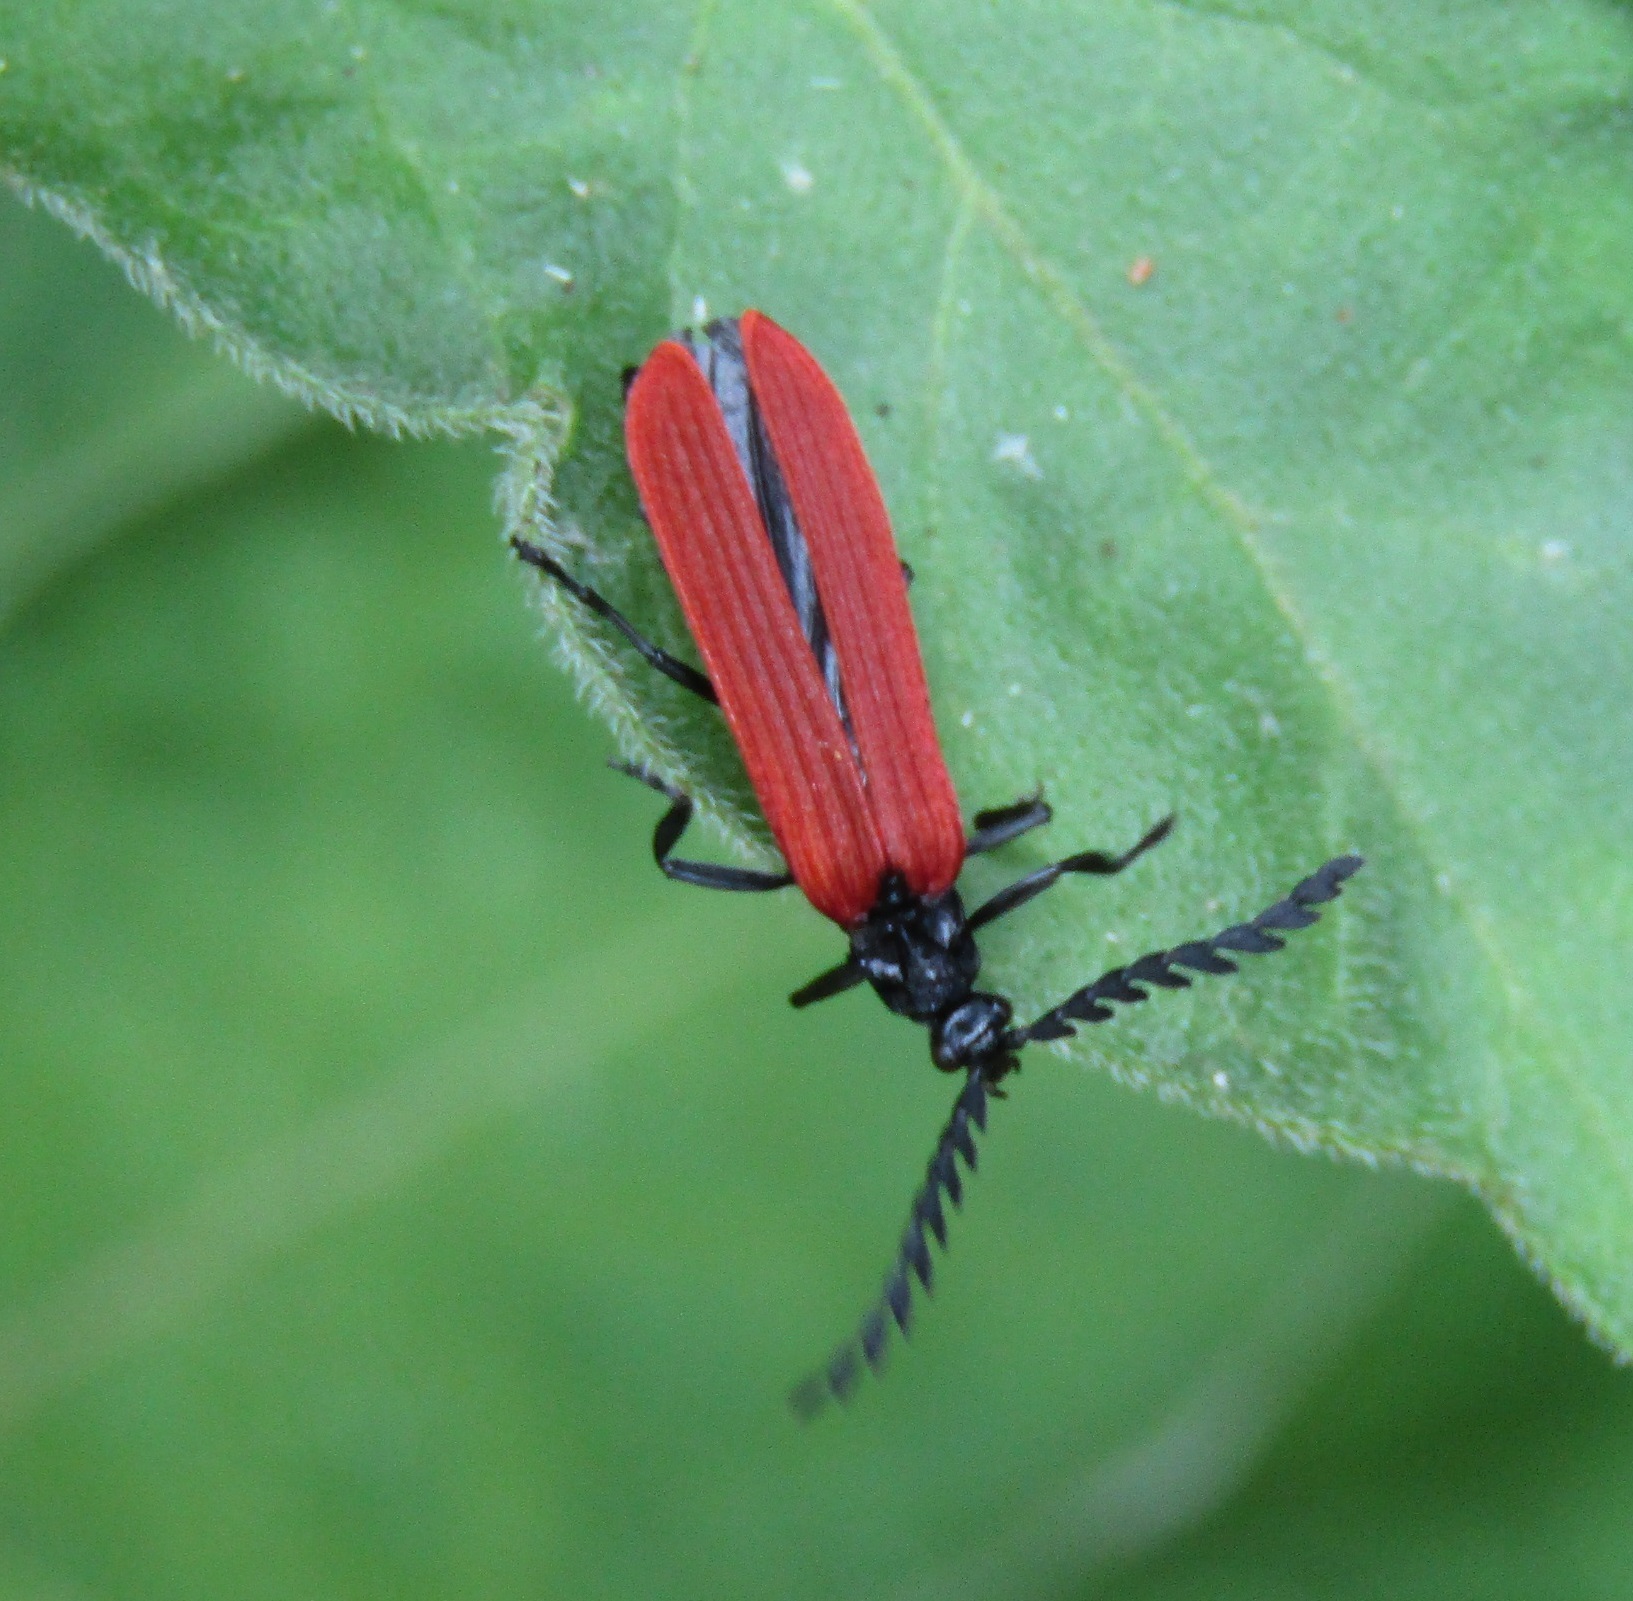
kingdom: Animalia
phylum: Arthropoda
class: Insecta
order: Coleoptera
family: Lycidae
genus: Porrostoma
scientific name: Porrostoma rufipenne
